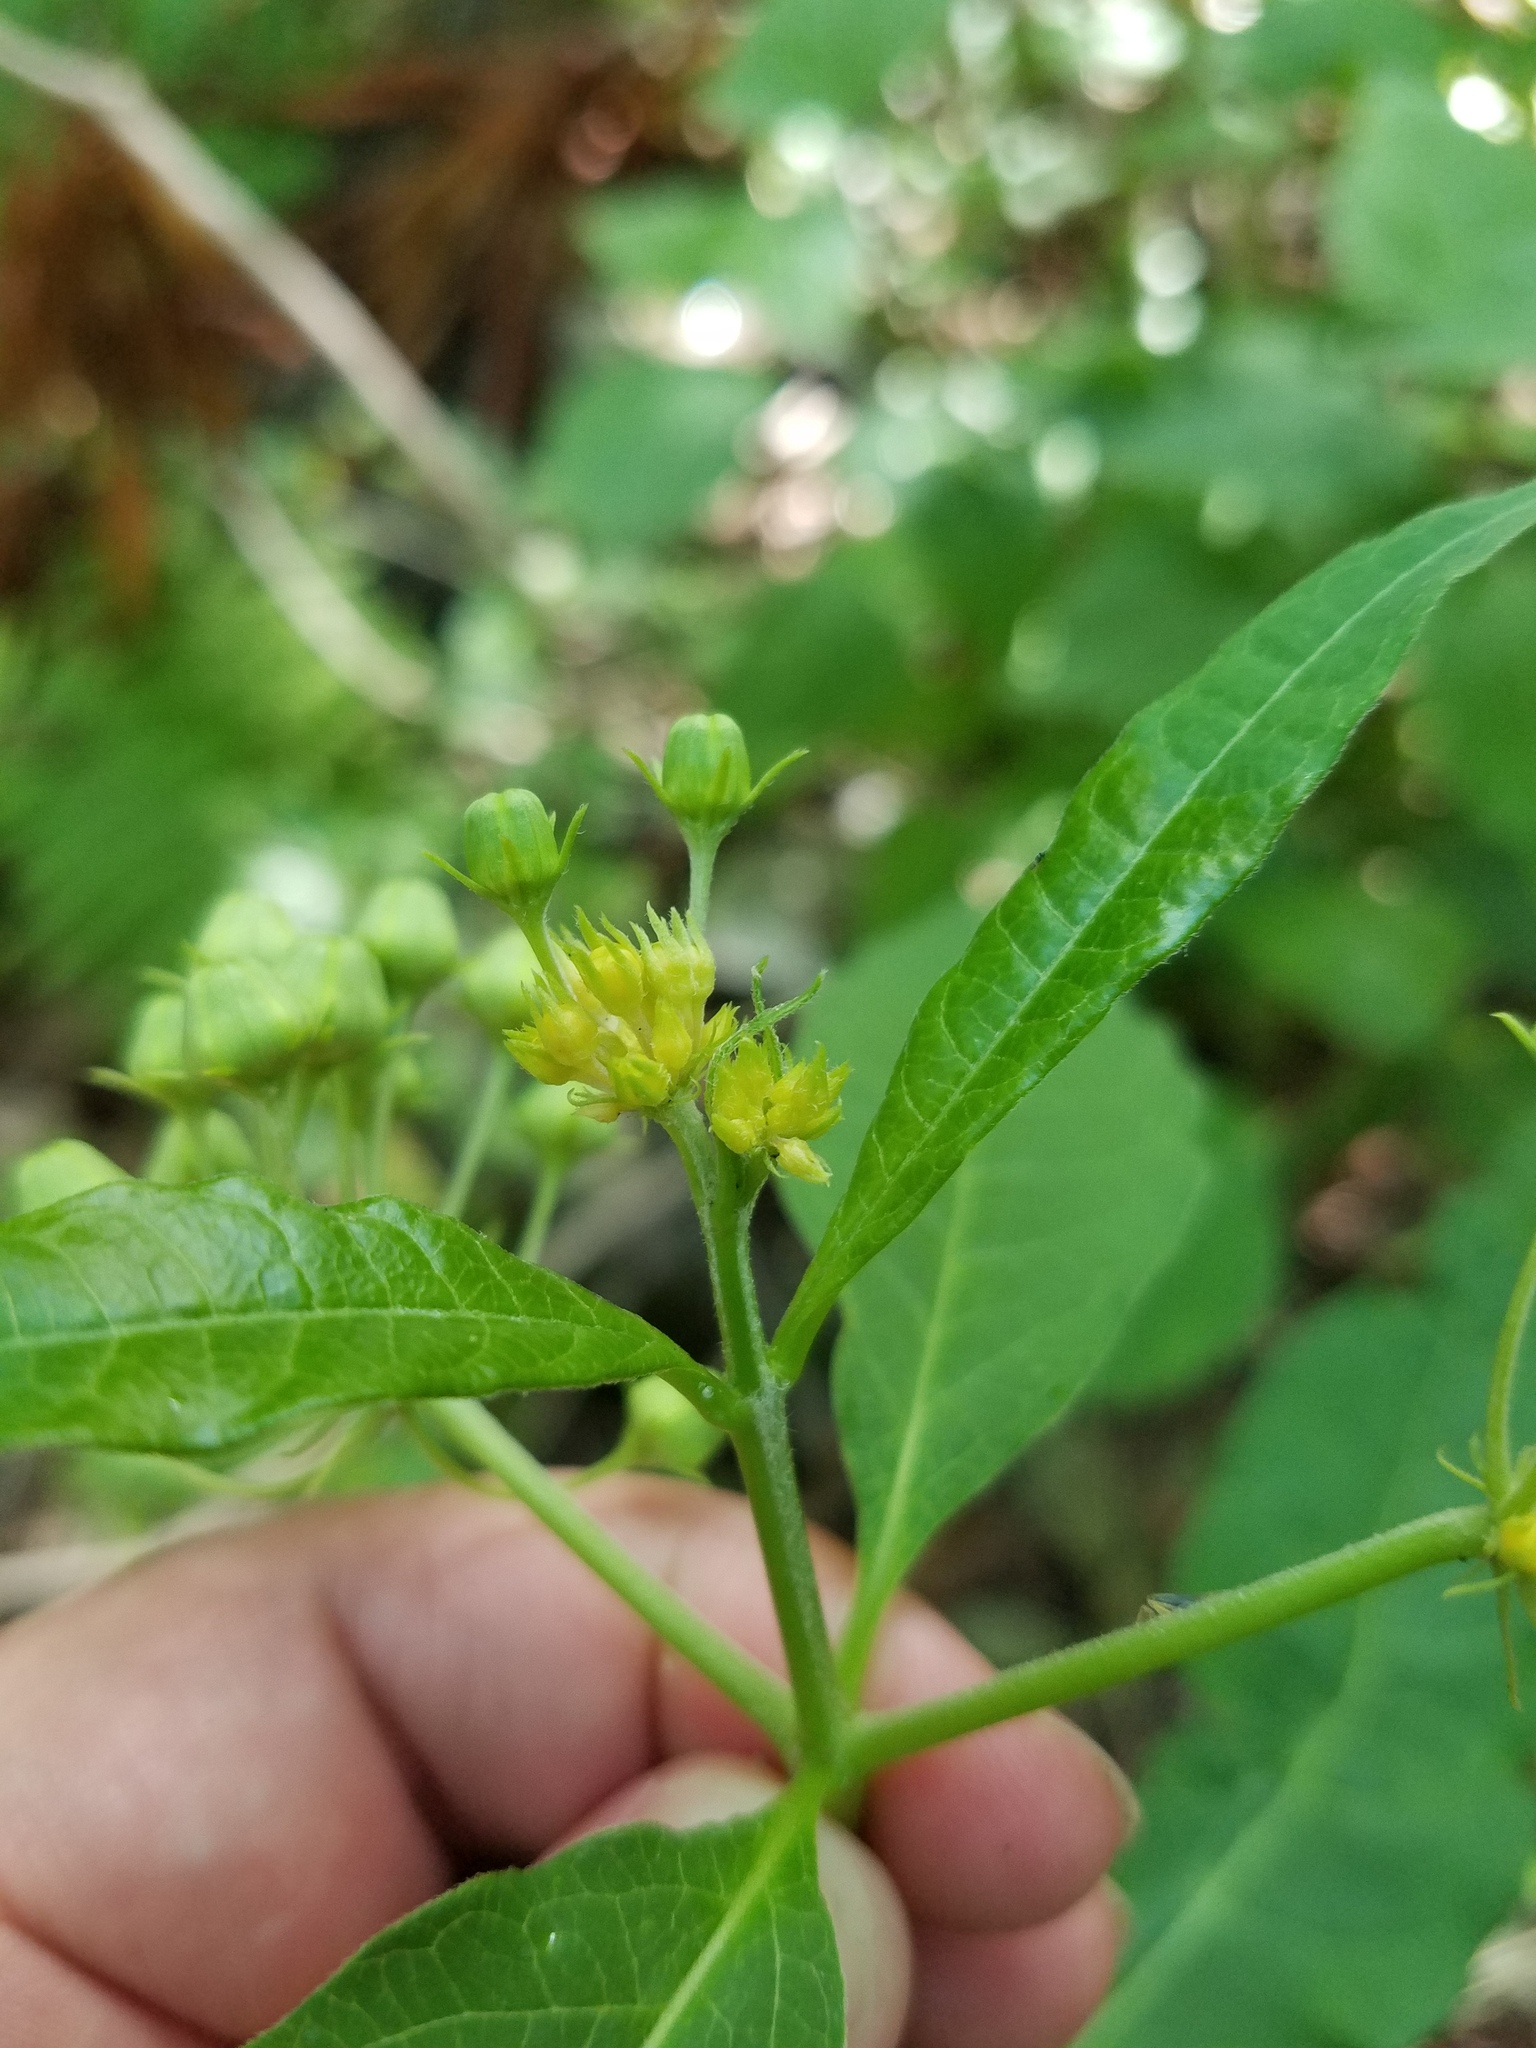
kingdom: Plantae
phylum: Tracheophyta
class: Magnoliopsida
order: Gentianales
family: Apocynaceae
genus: Asclepias
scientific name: Asclepias exaltata
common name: Poke milkweed
